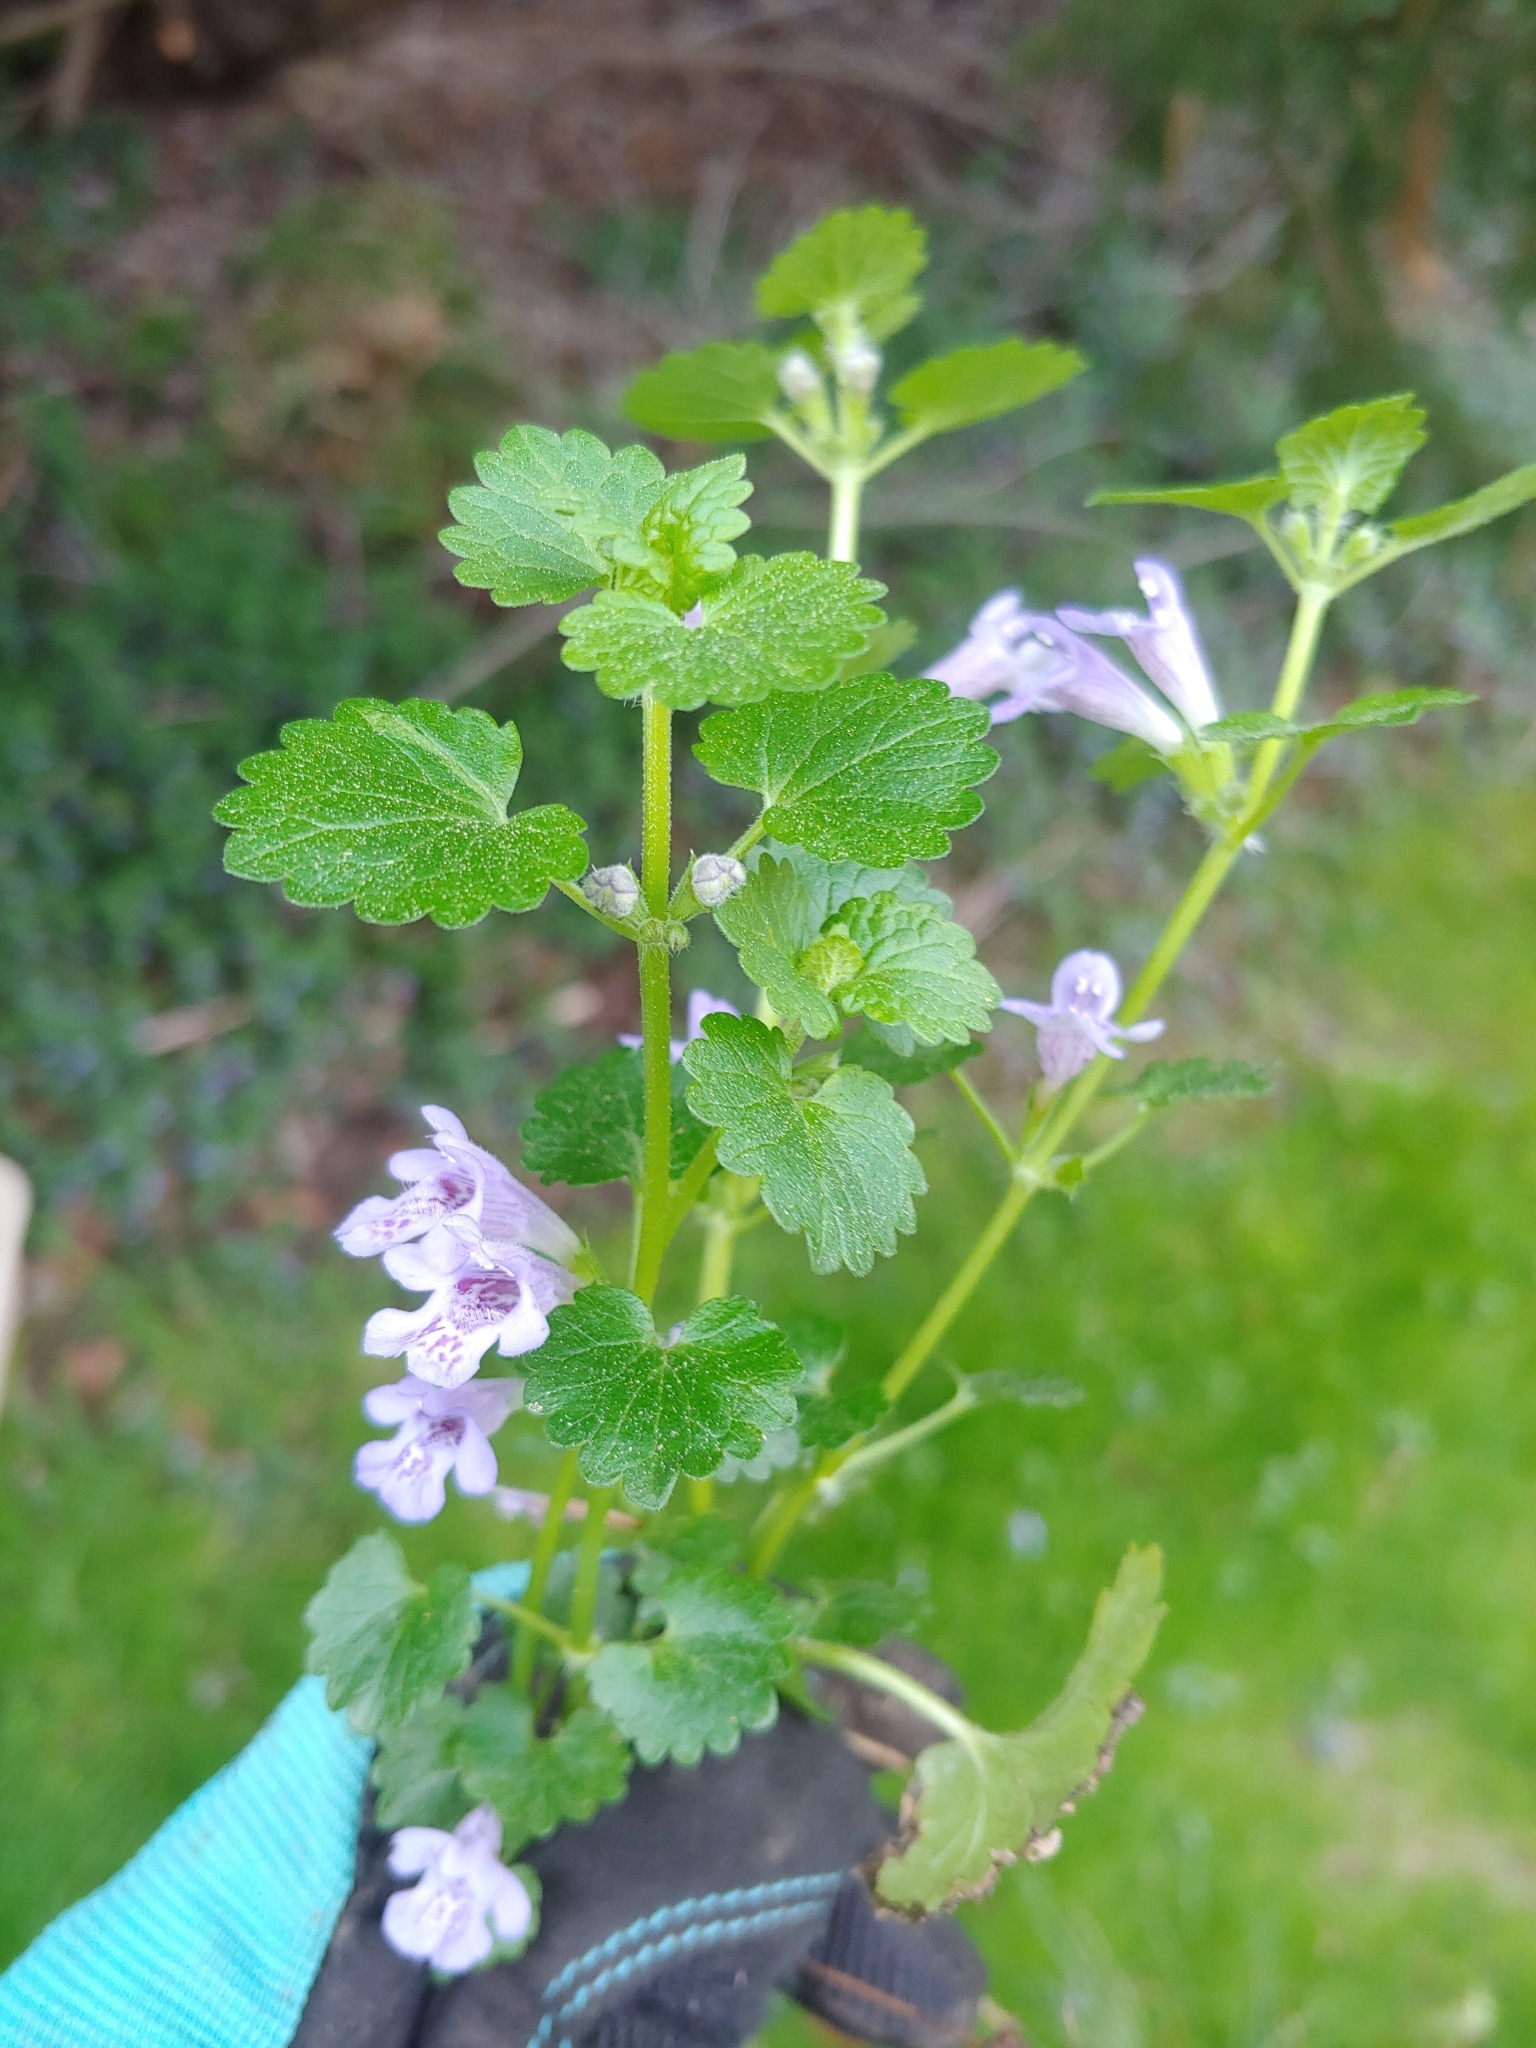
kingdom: Plantae
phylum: Tracheophyta
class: Magnoliopsida
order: Lamiales
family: Lamiaceae
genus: Glechoma
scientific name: Glechoma hederacea
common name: Ground ivy
